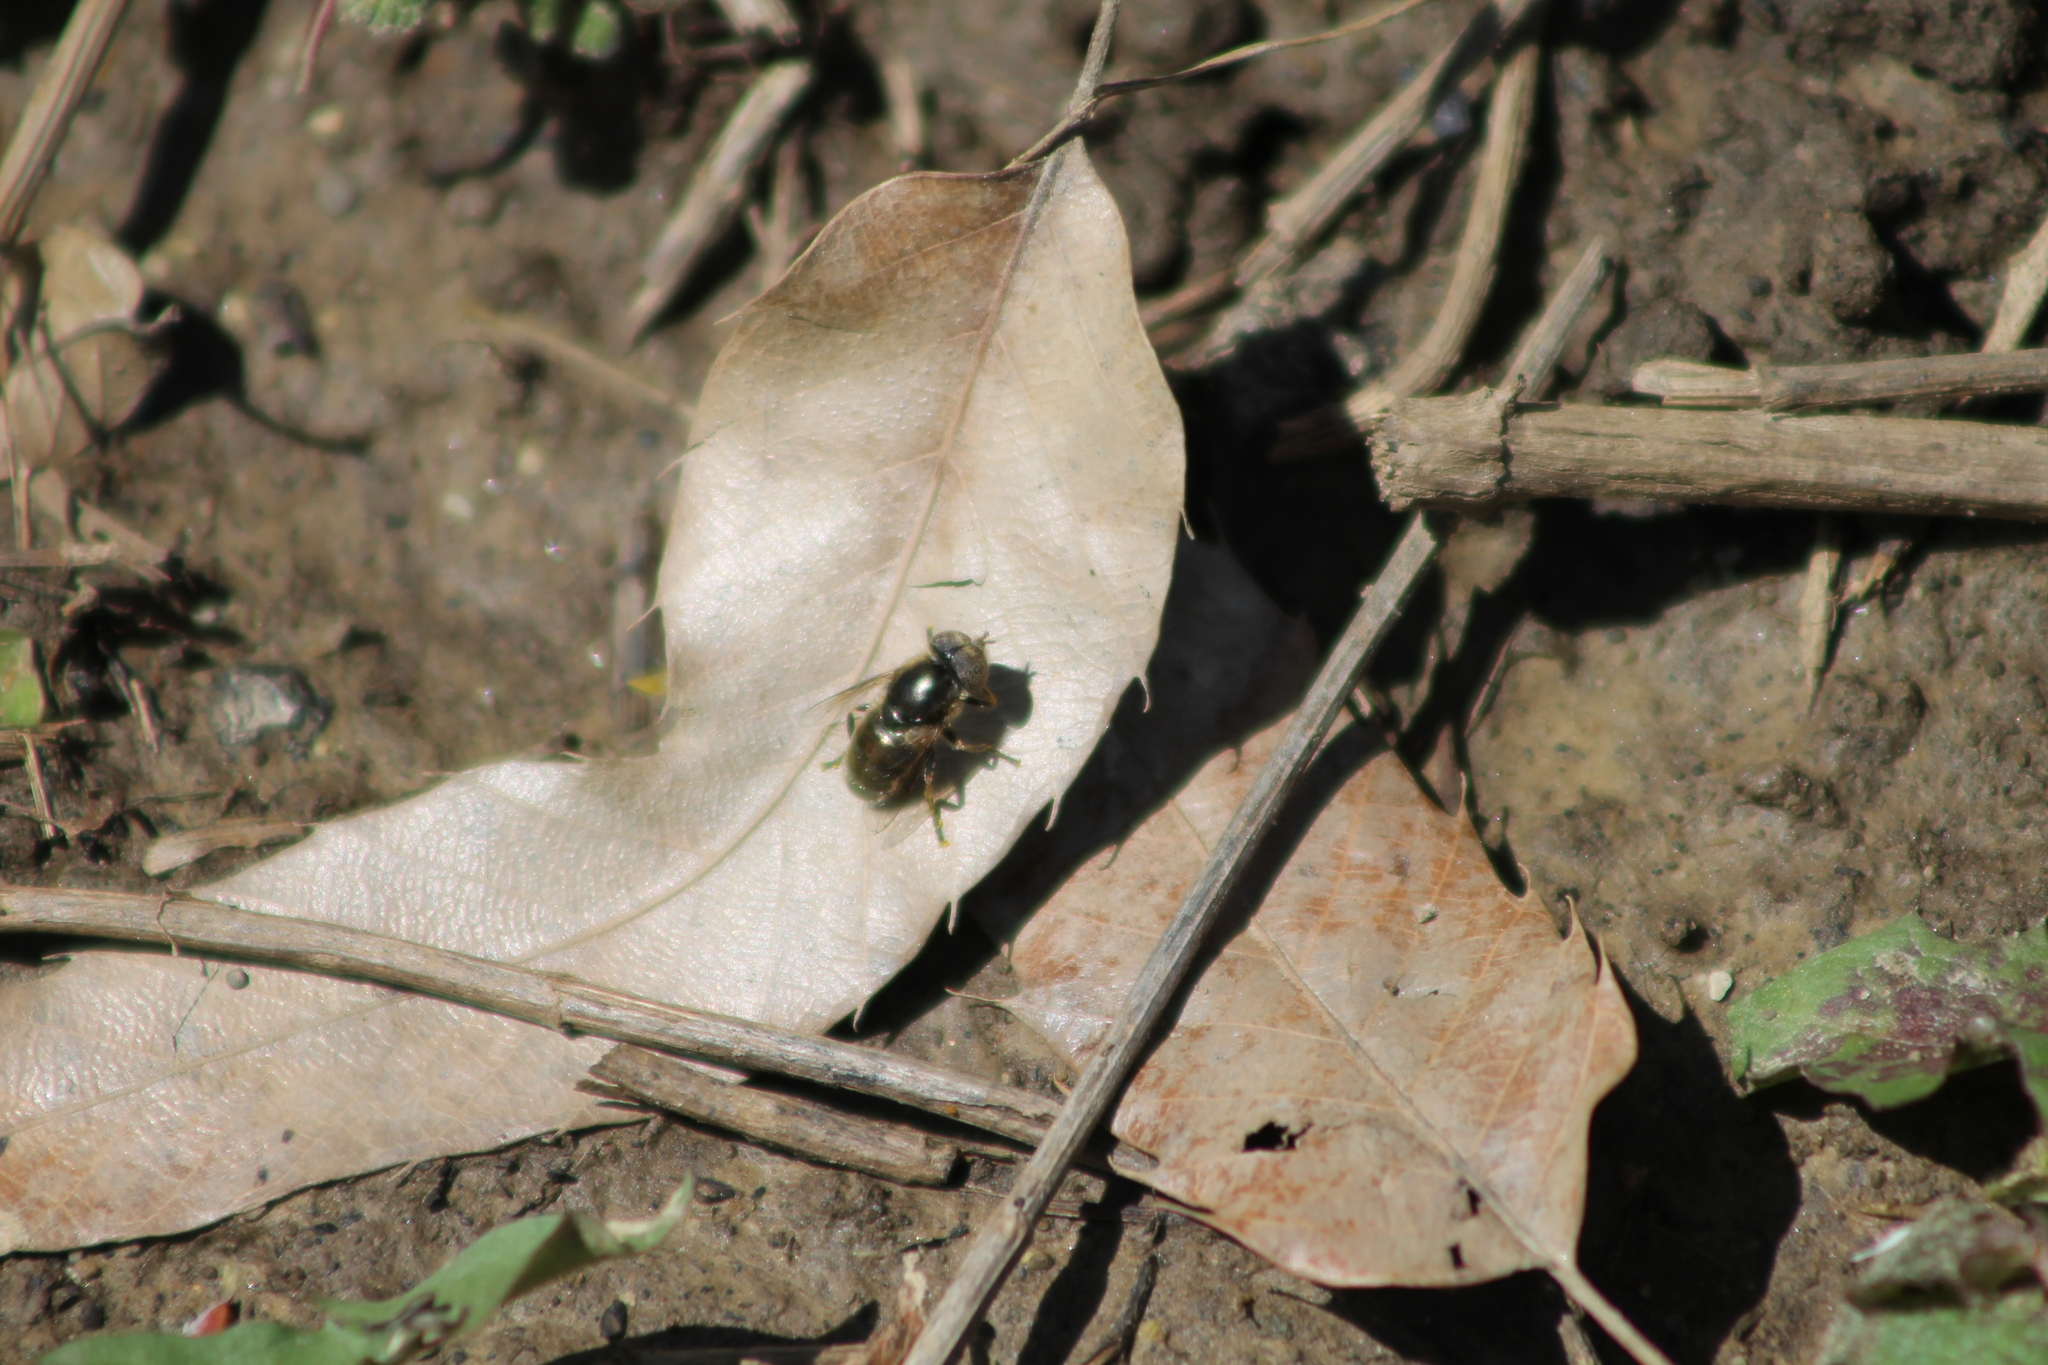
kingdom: Animalia
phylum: Arthropoda
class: Insecta
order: Diptera
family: Syrphidae
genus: Eristalinus
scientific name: Eristalinus aeneus
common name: Syrphid fly
